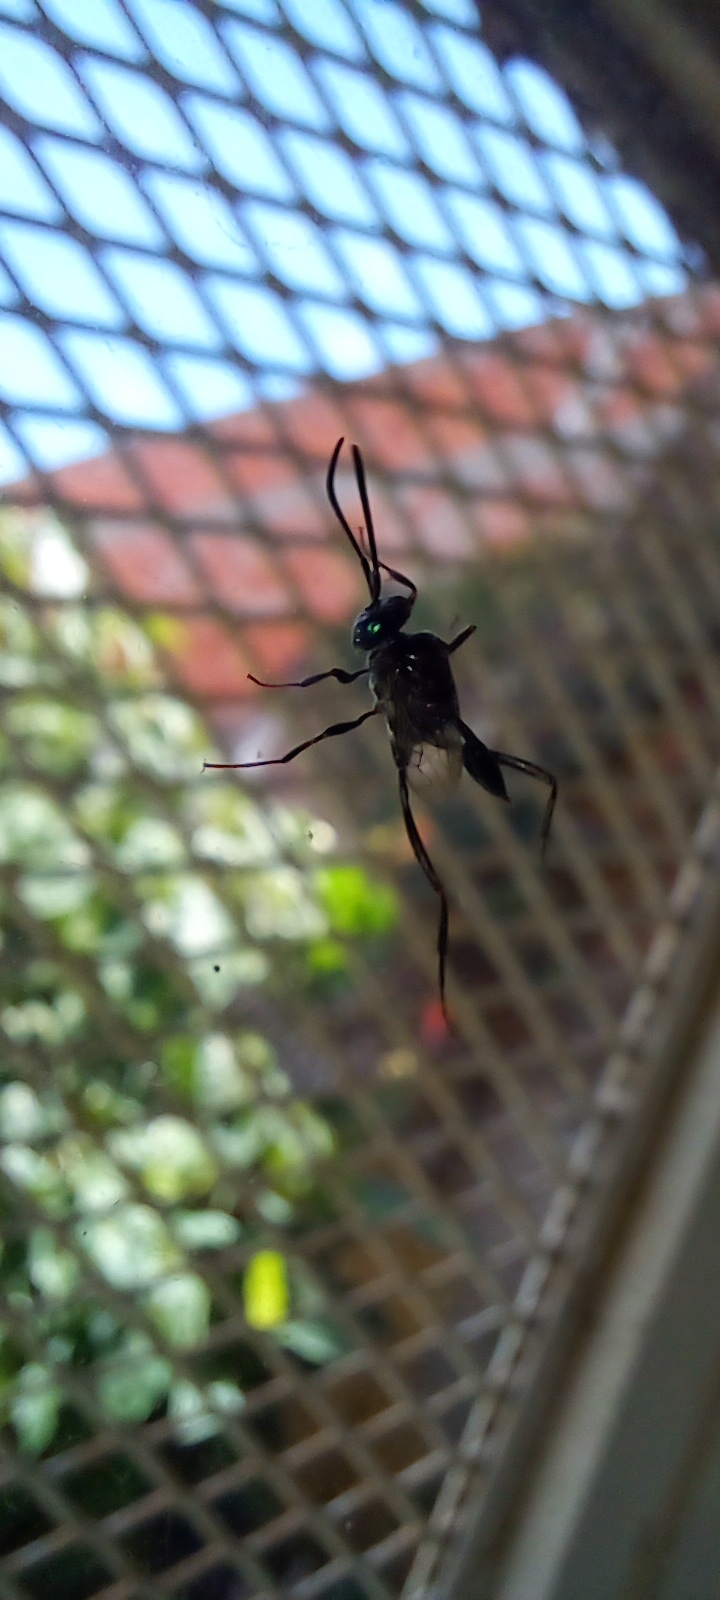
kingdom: Animalia
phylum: Arthropoda
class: Insecta
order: Hymenoptera
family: Evaniidae
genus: Evania
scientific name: Evania appendigaster
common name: Ensign wasp
